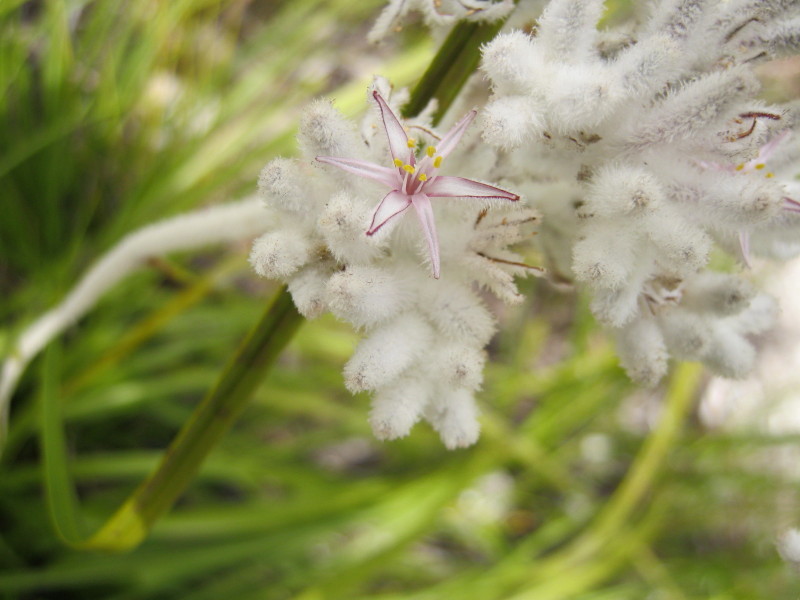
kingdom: Plantae
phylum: Tracheophyta
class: Liliopsida
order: Asparagales
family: Lanariaceae
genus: Lanaria
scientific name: Lanaria lanata
